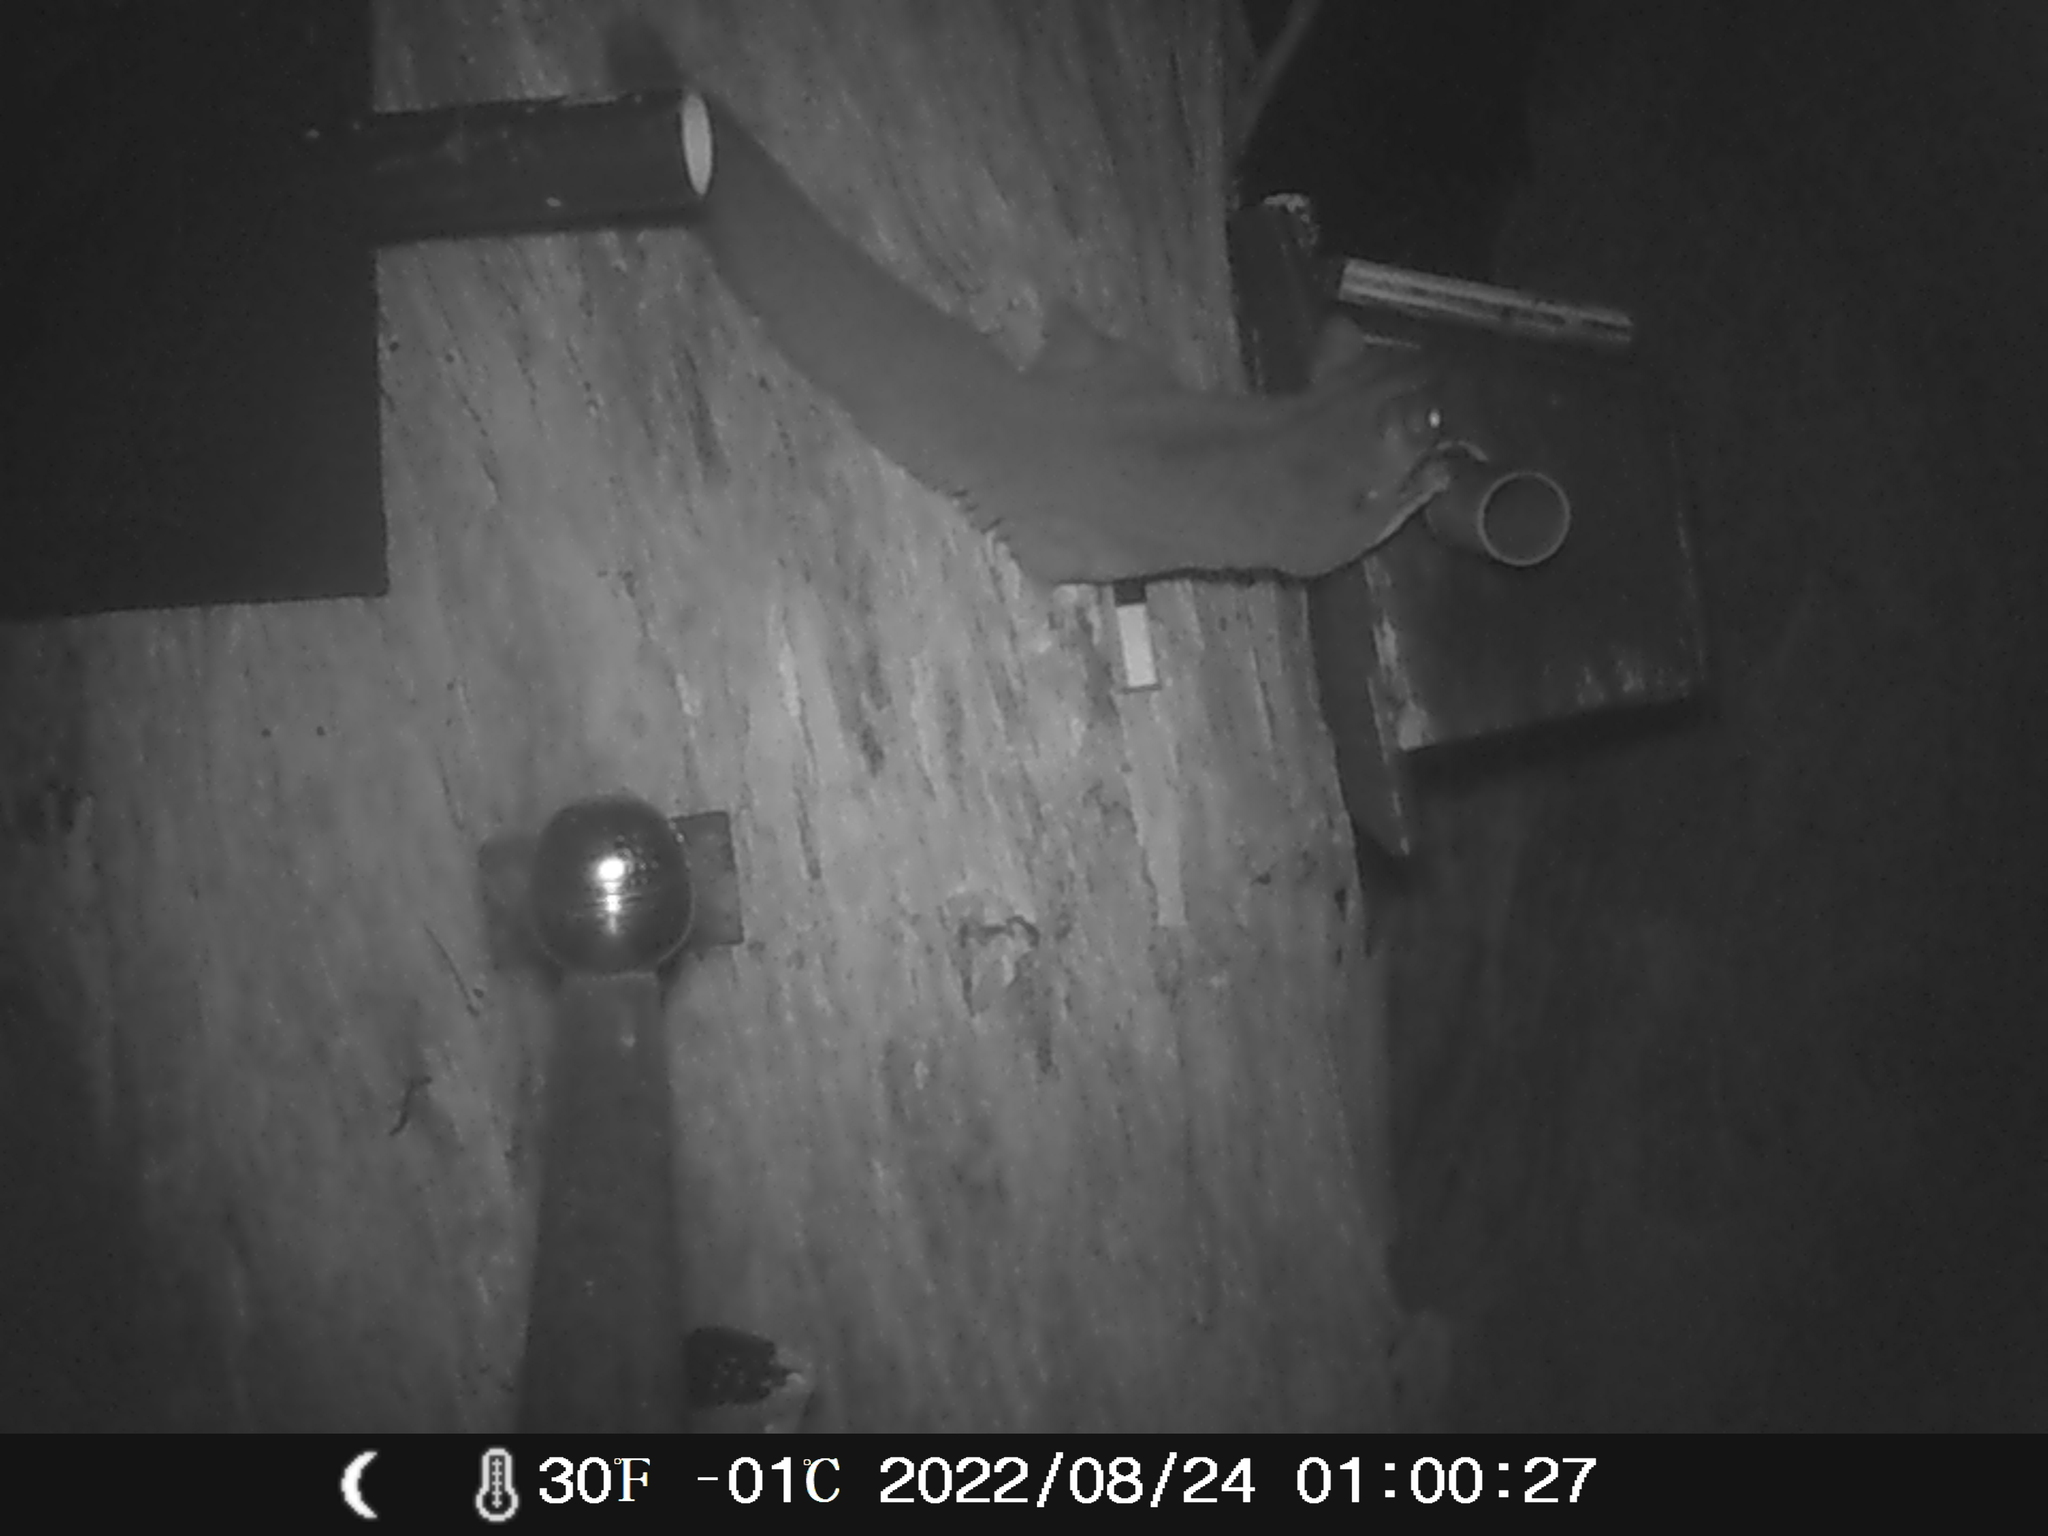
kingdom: Animalia
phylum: Chordata
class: Mammalia
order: Diprotodontia
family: Petauridae
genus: Petaurus
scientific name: Petaurus breviceps
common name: Sugar glider
